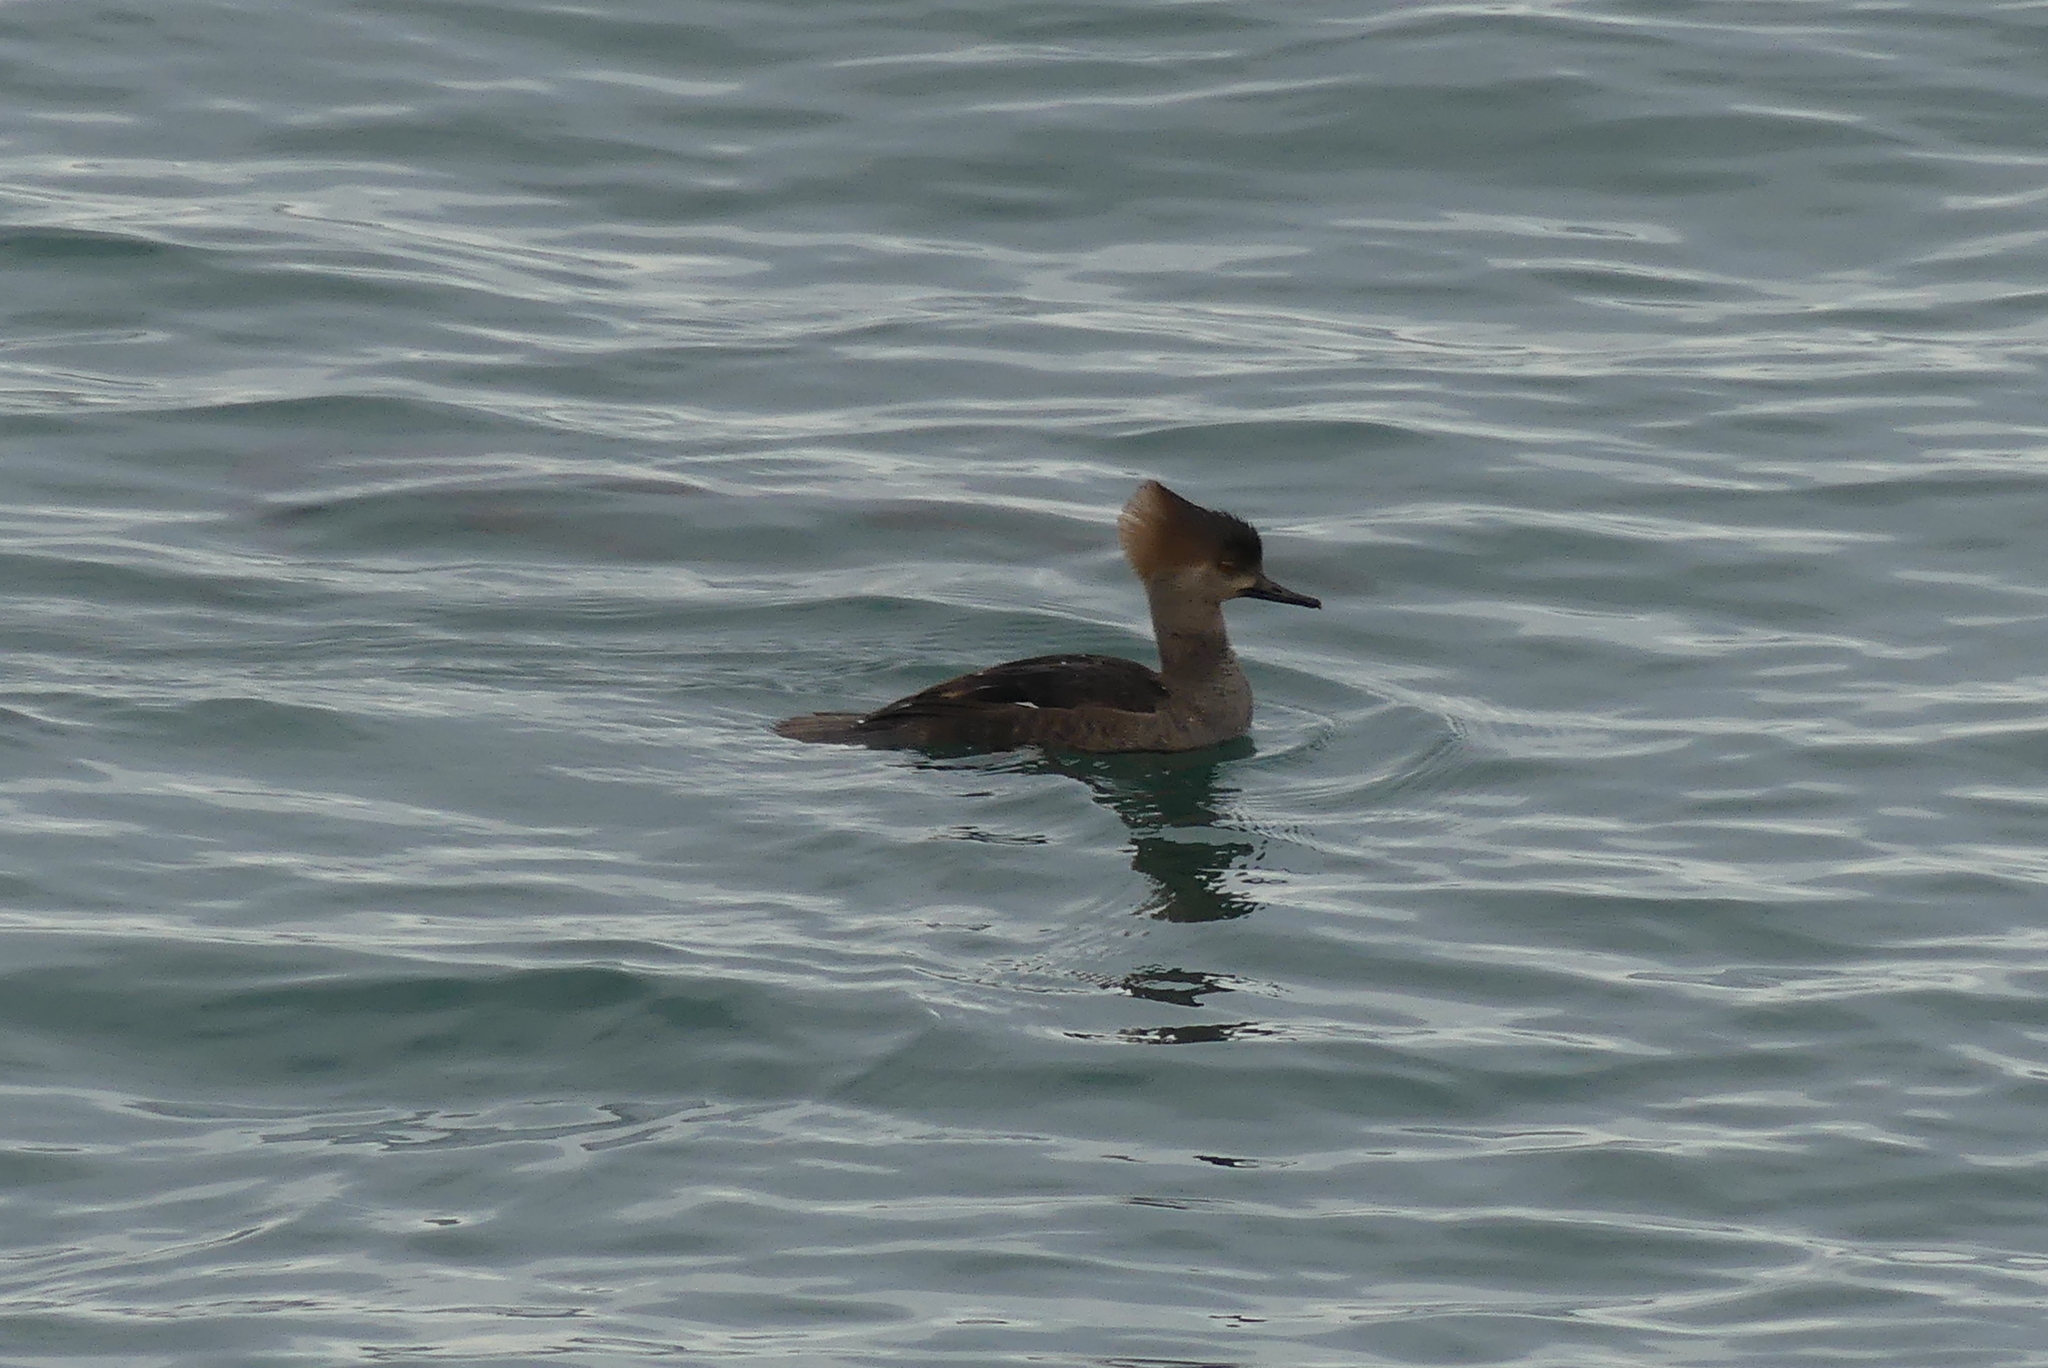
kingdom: Animalia
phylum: Chordata
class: Aves
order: Anseriformes
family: Anatidae
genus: Lophodytes
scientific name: Lophodytes cucullatus
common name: Hooded merganser
